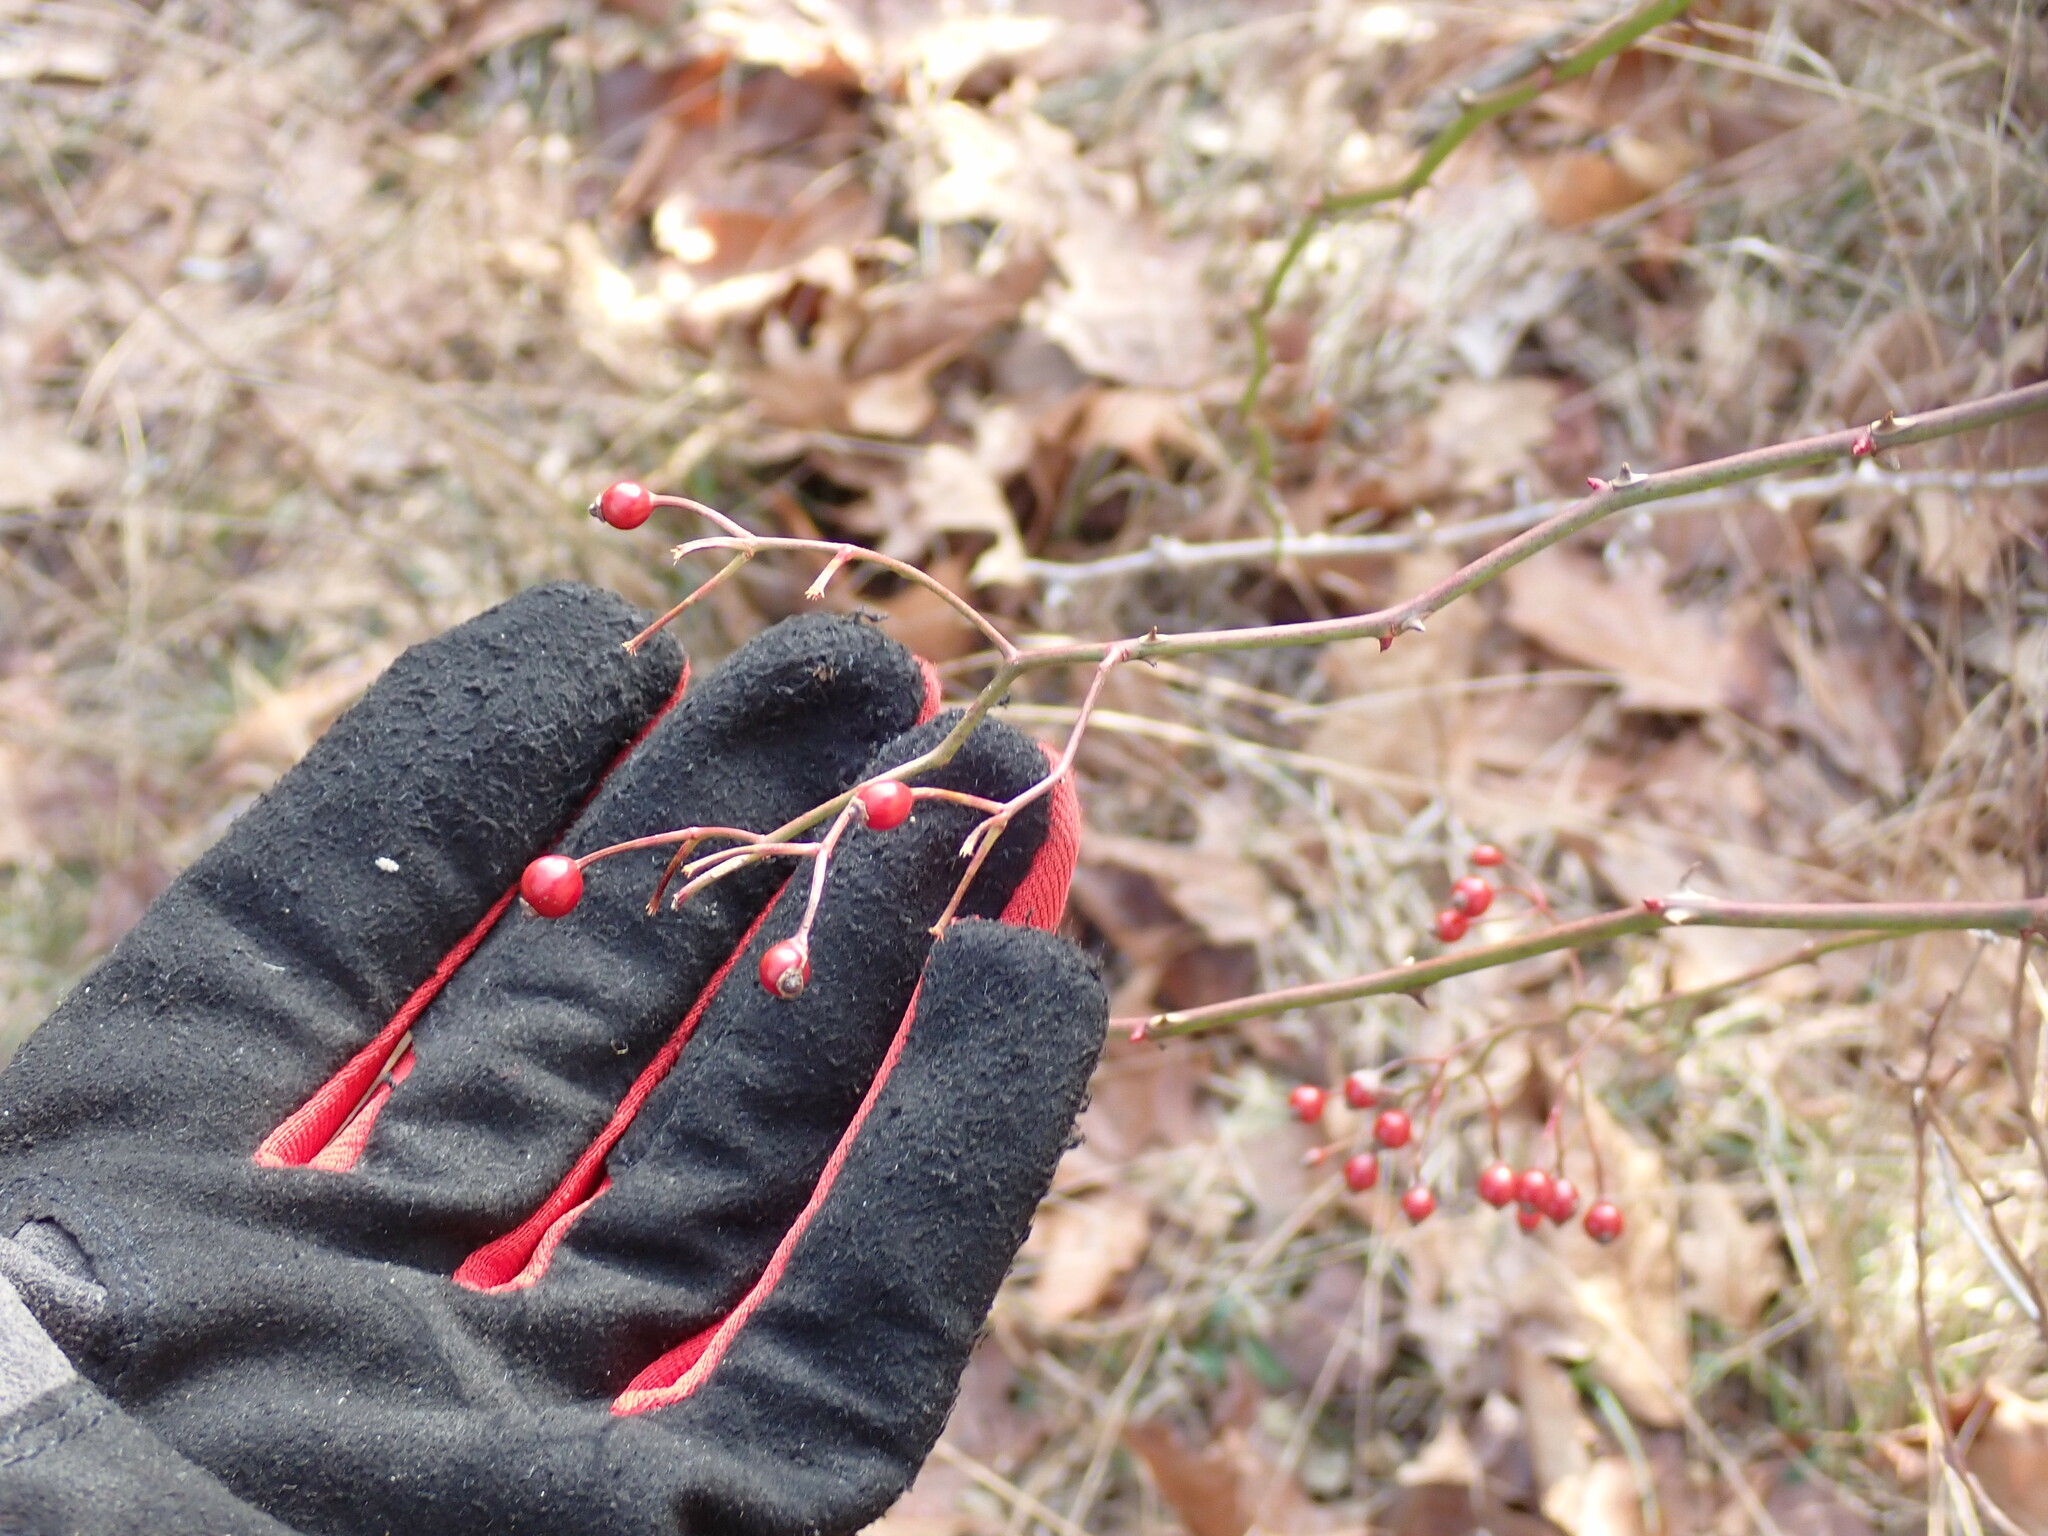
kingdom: Plantae
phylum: Tracheophyta
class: Magnoliopsida
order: Rosales
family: Rosaceae
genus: Rosa
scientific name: Rosa multiflora
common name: Multiflora rose
